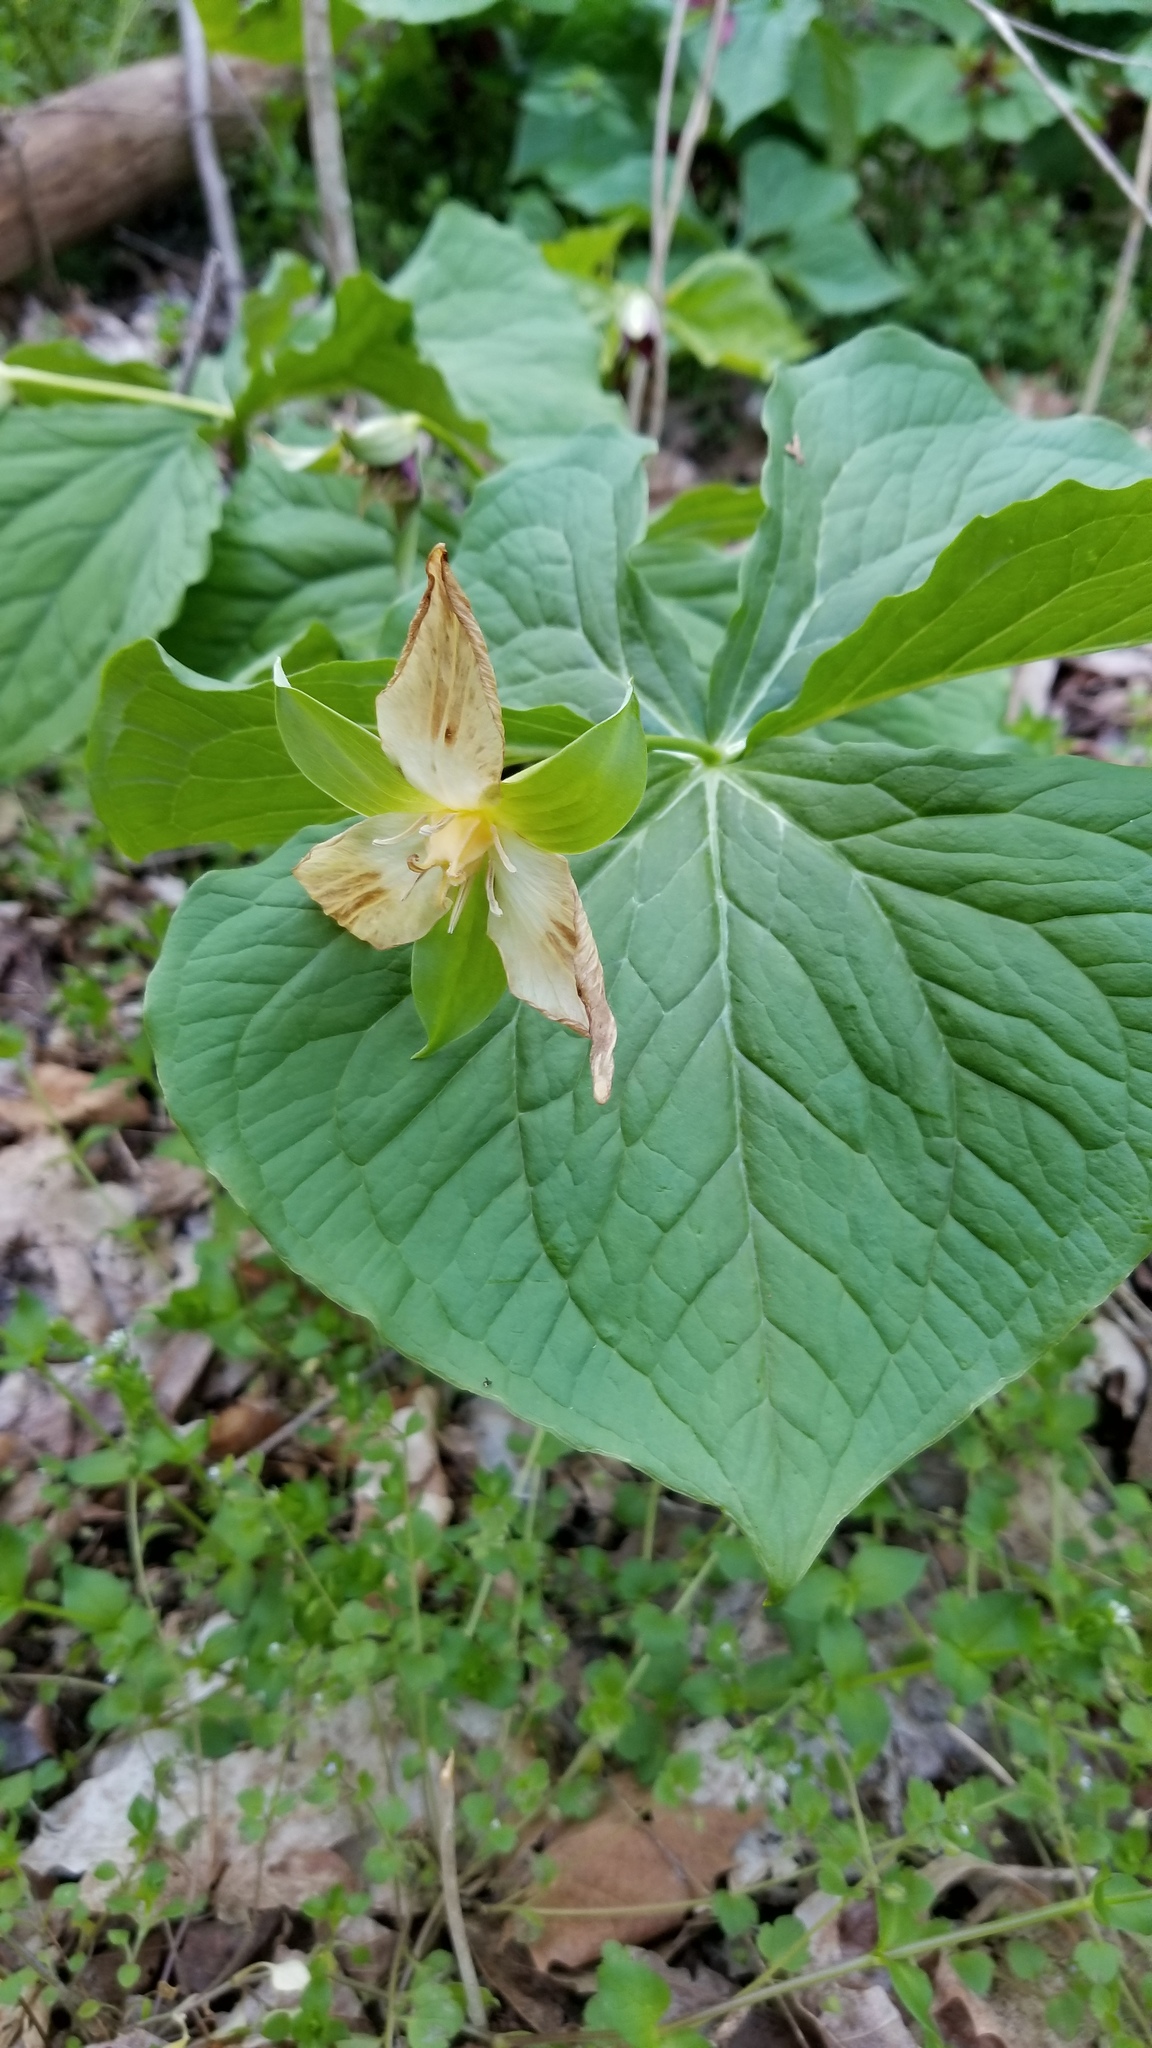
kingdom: Plantae
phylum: Tracheophyta
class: Liliopsida
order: Liliales
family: Melanthiaceae
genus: Trillium
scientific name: Trillium erectum
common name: Purple trillium
